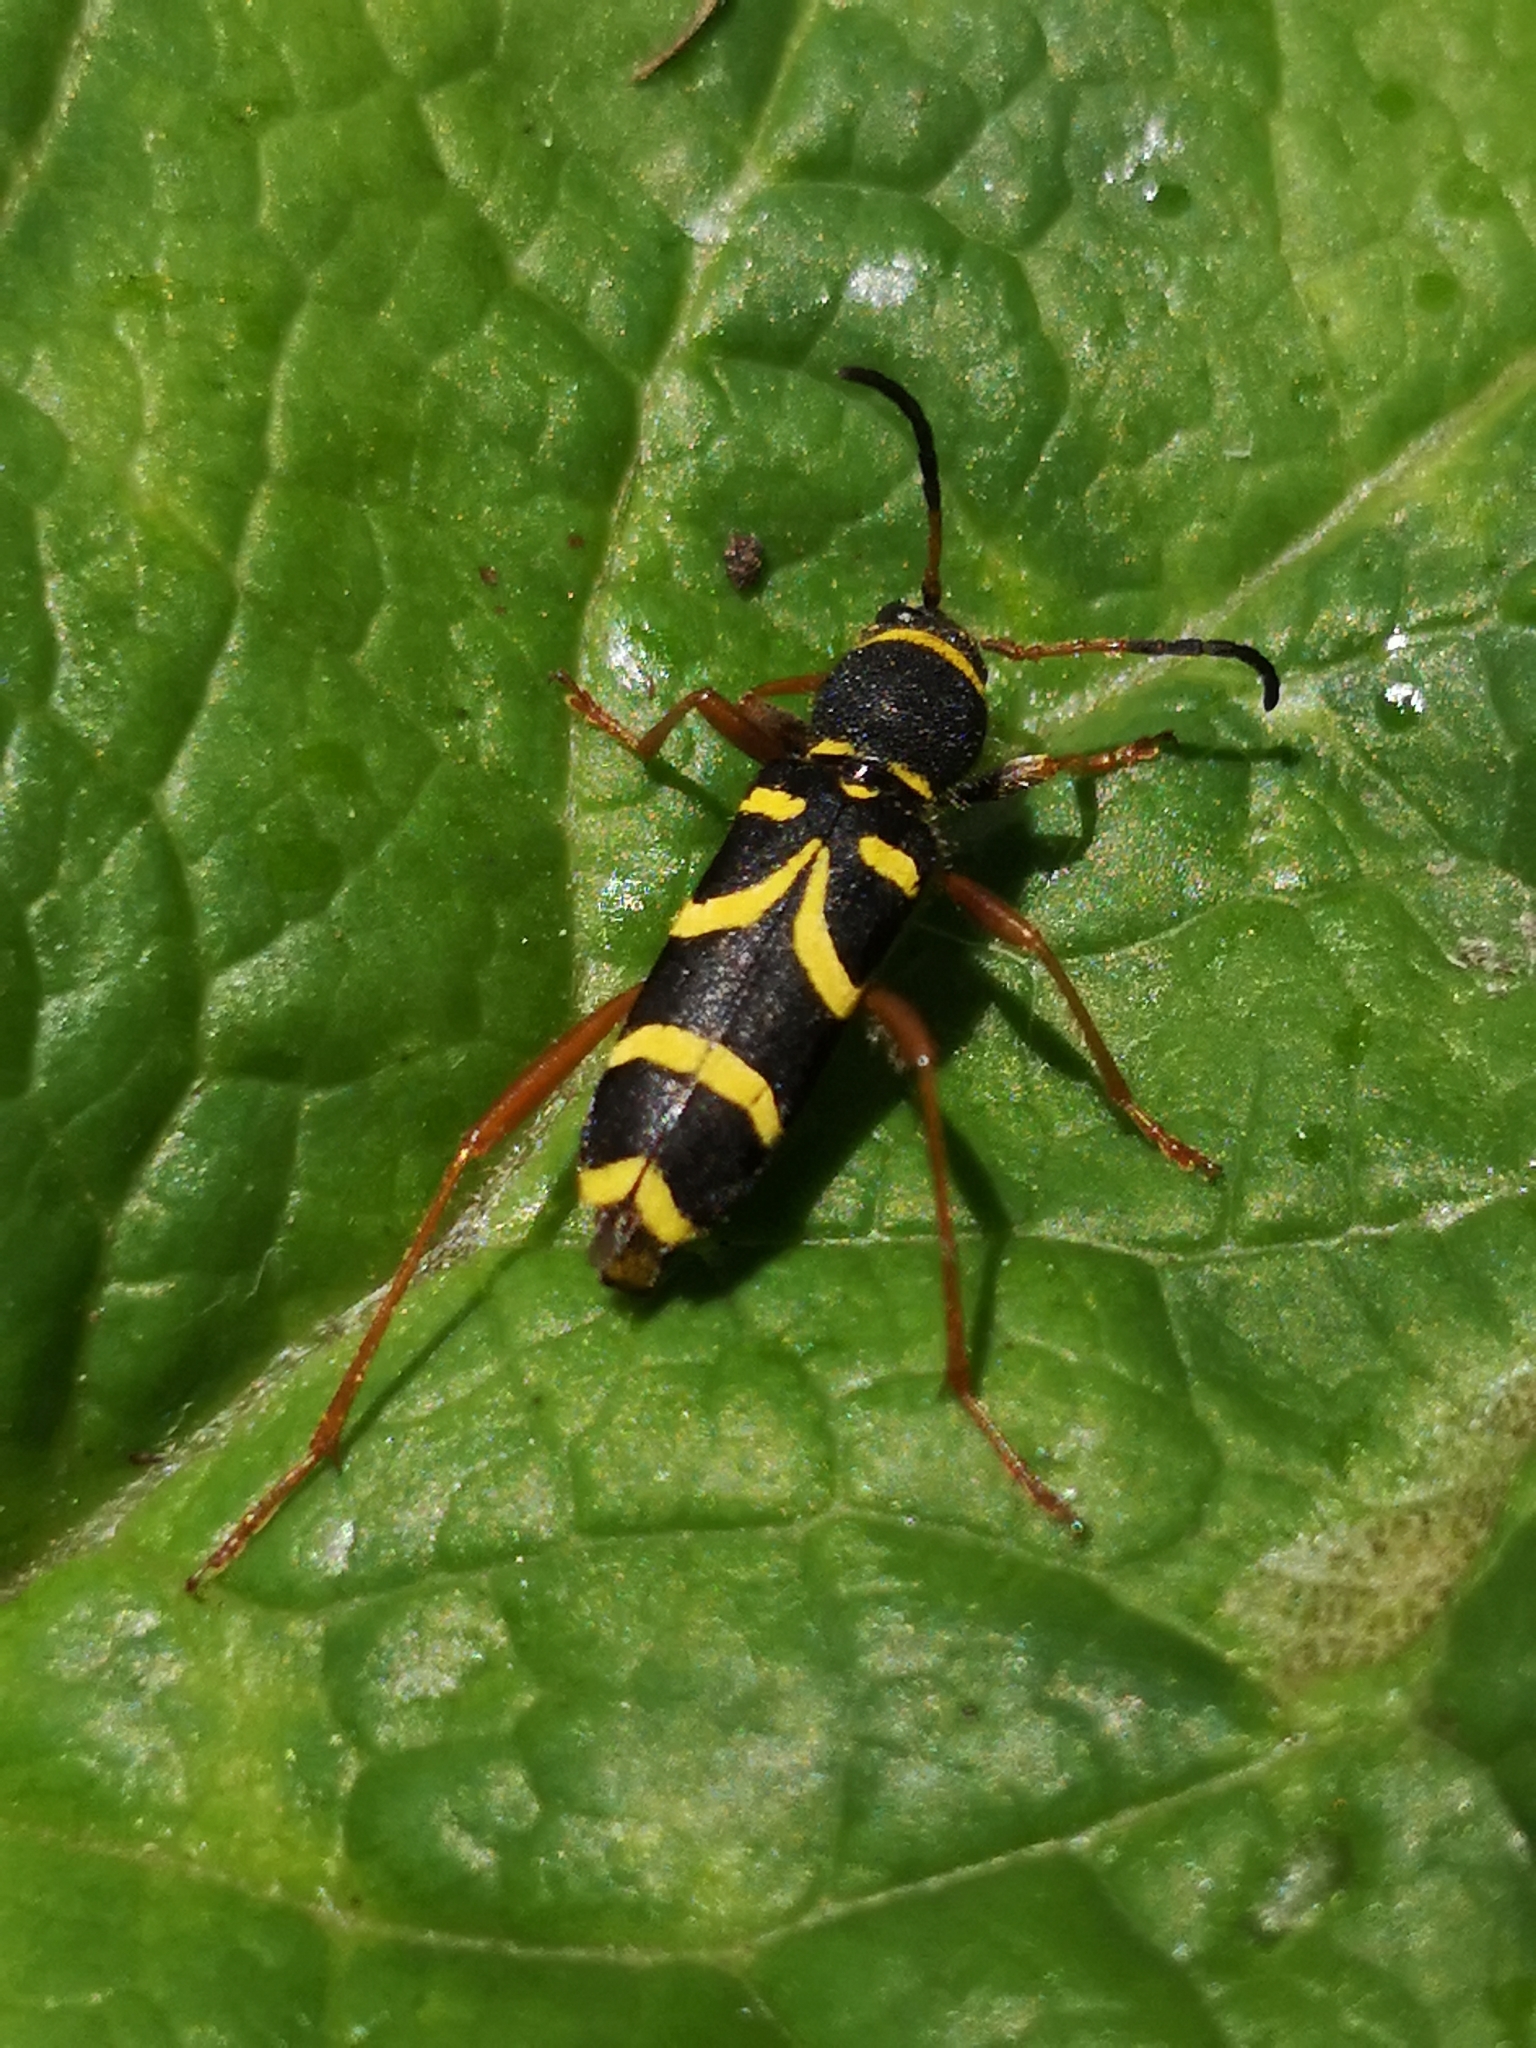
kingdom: Animalia
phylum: Arthropoda
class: Insecta
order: Coleoptera
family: Cerambycidae
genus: Clytus
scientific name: Clytus arietis
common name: Wasp beetle
